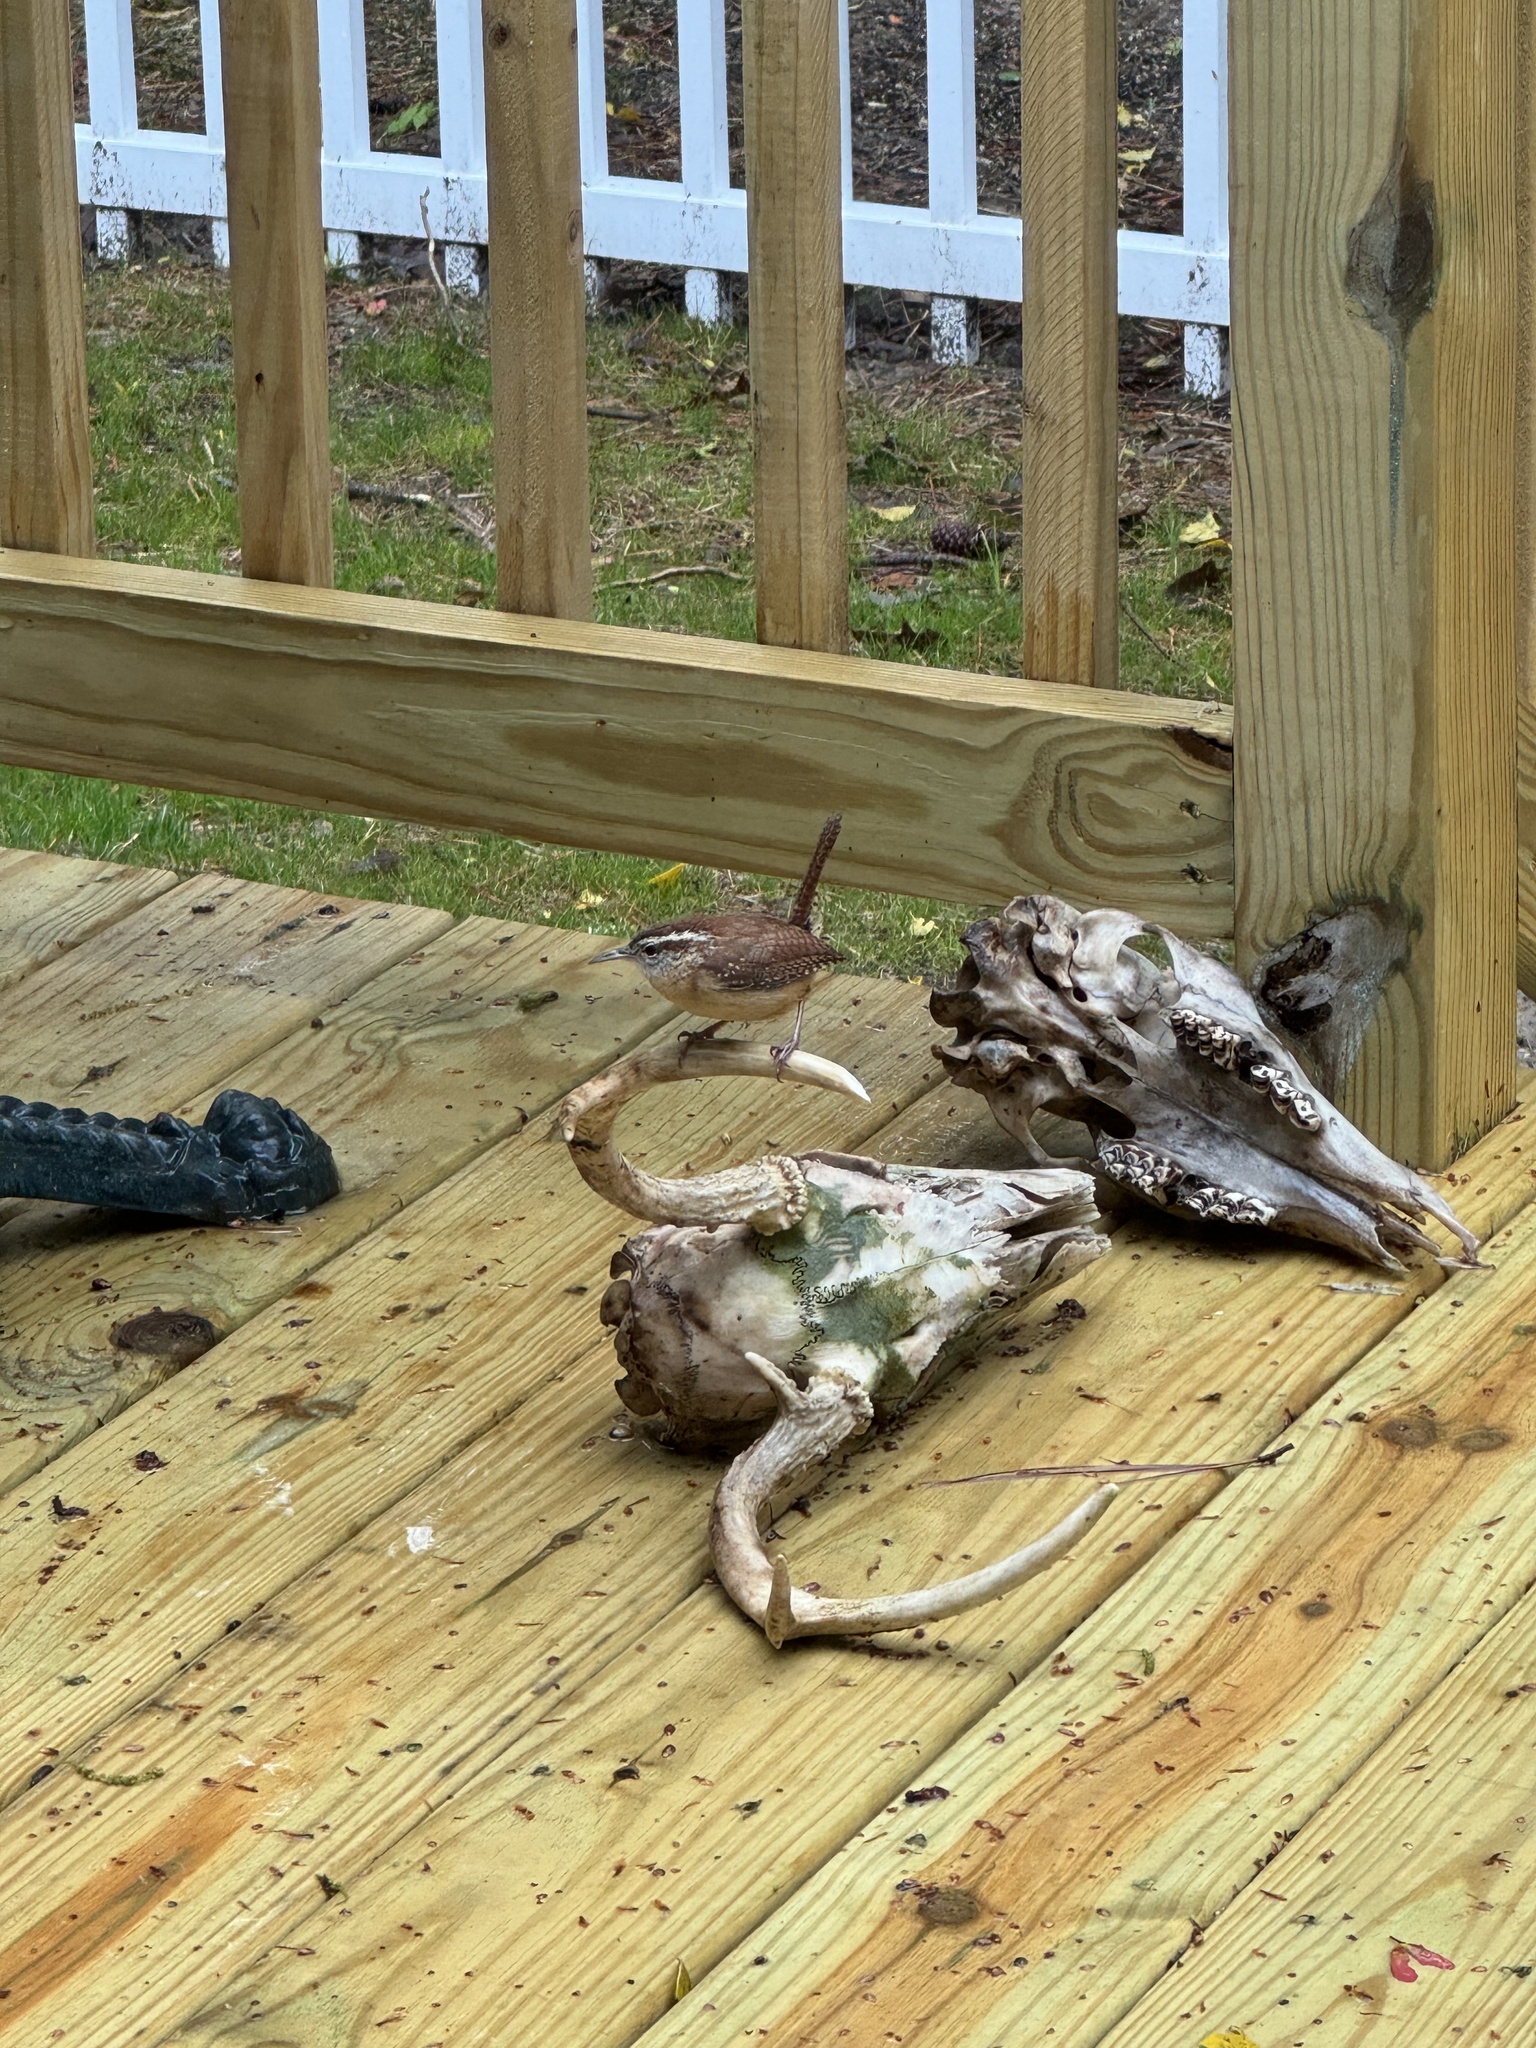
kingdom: Animalia
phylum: Chordata
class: Aves
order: Passeriformes
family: Troglodytidae
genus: Thryothorus
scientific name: Thryothorus ludovicianus
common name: Carolina wren
